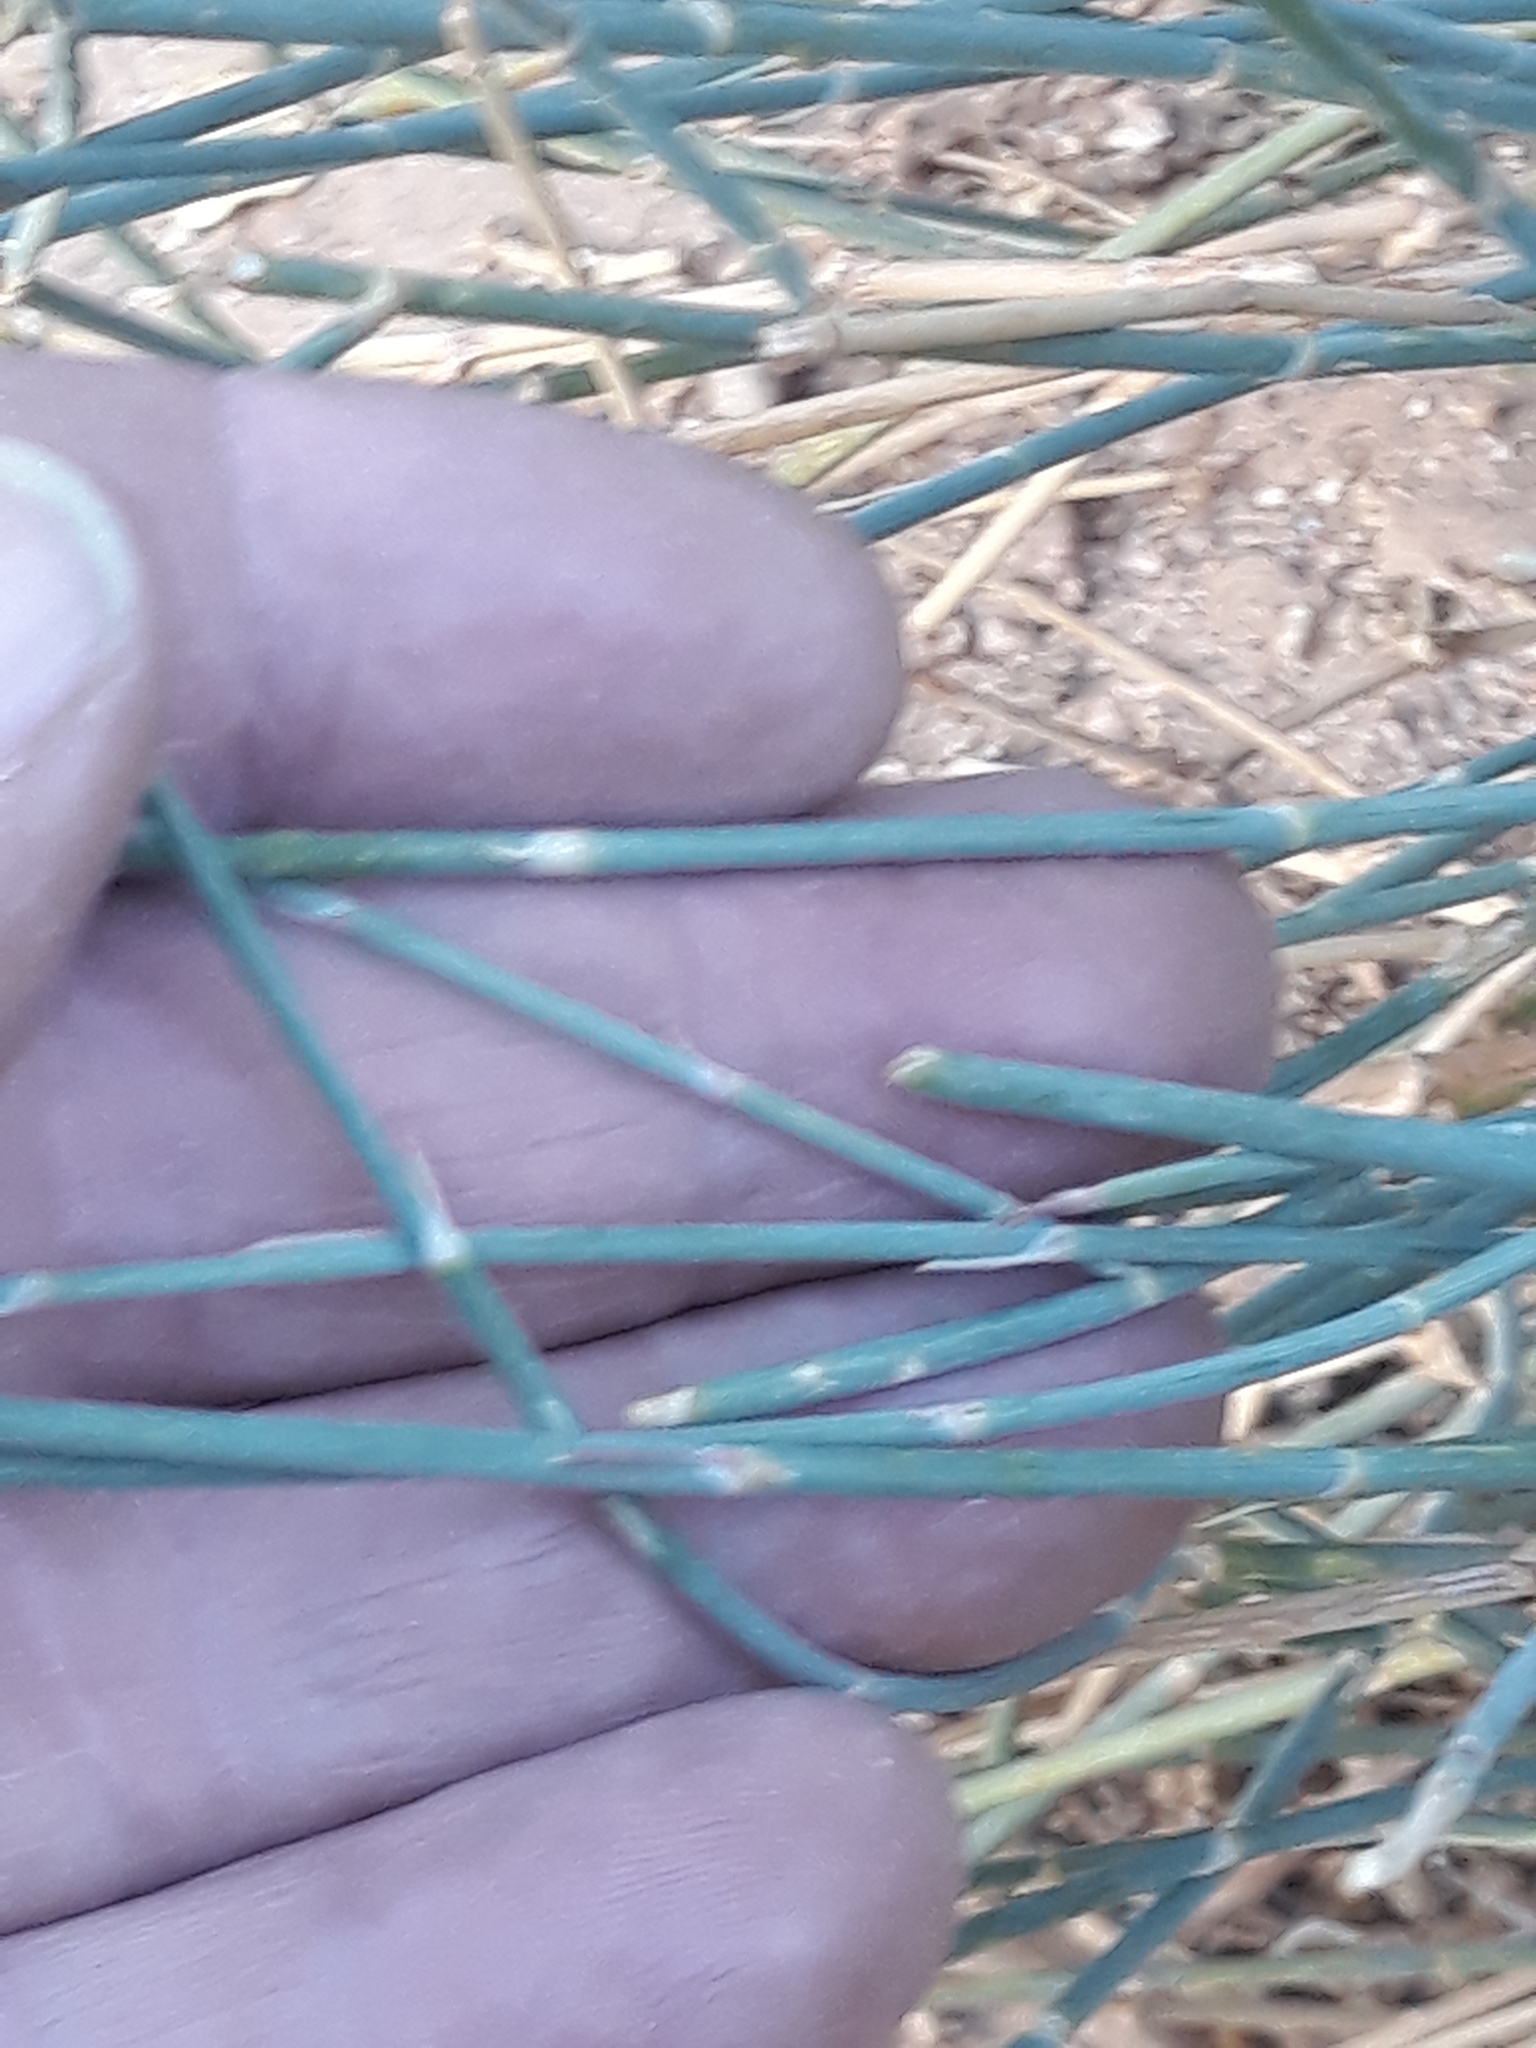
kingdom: Plantae
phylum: Tracheophyta
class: Magnoliopsida
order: Apiales
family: Apiaceae
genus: Deverra
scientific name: Deverra scoparia
